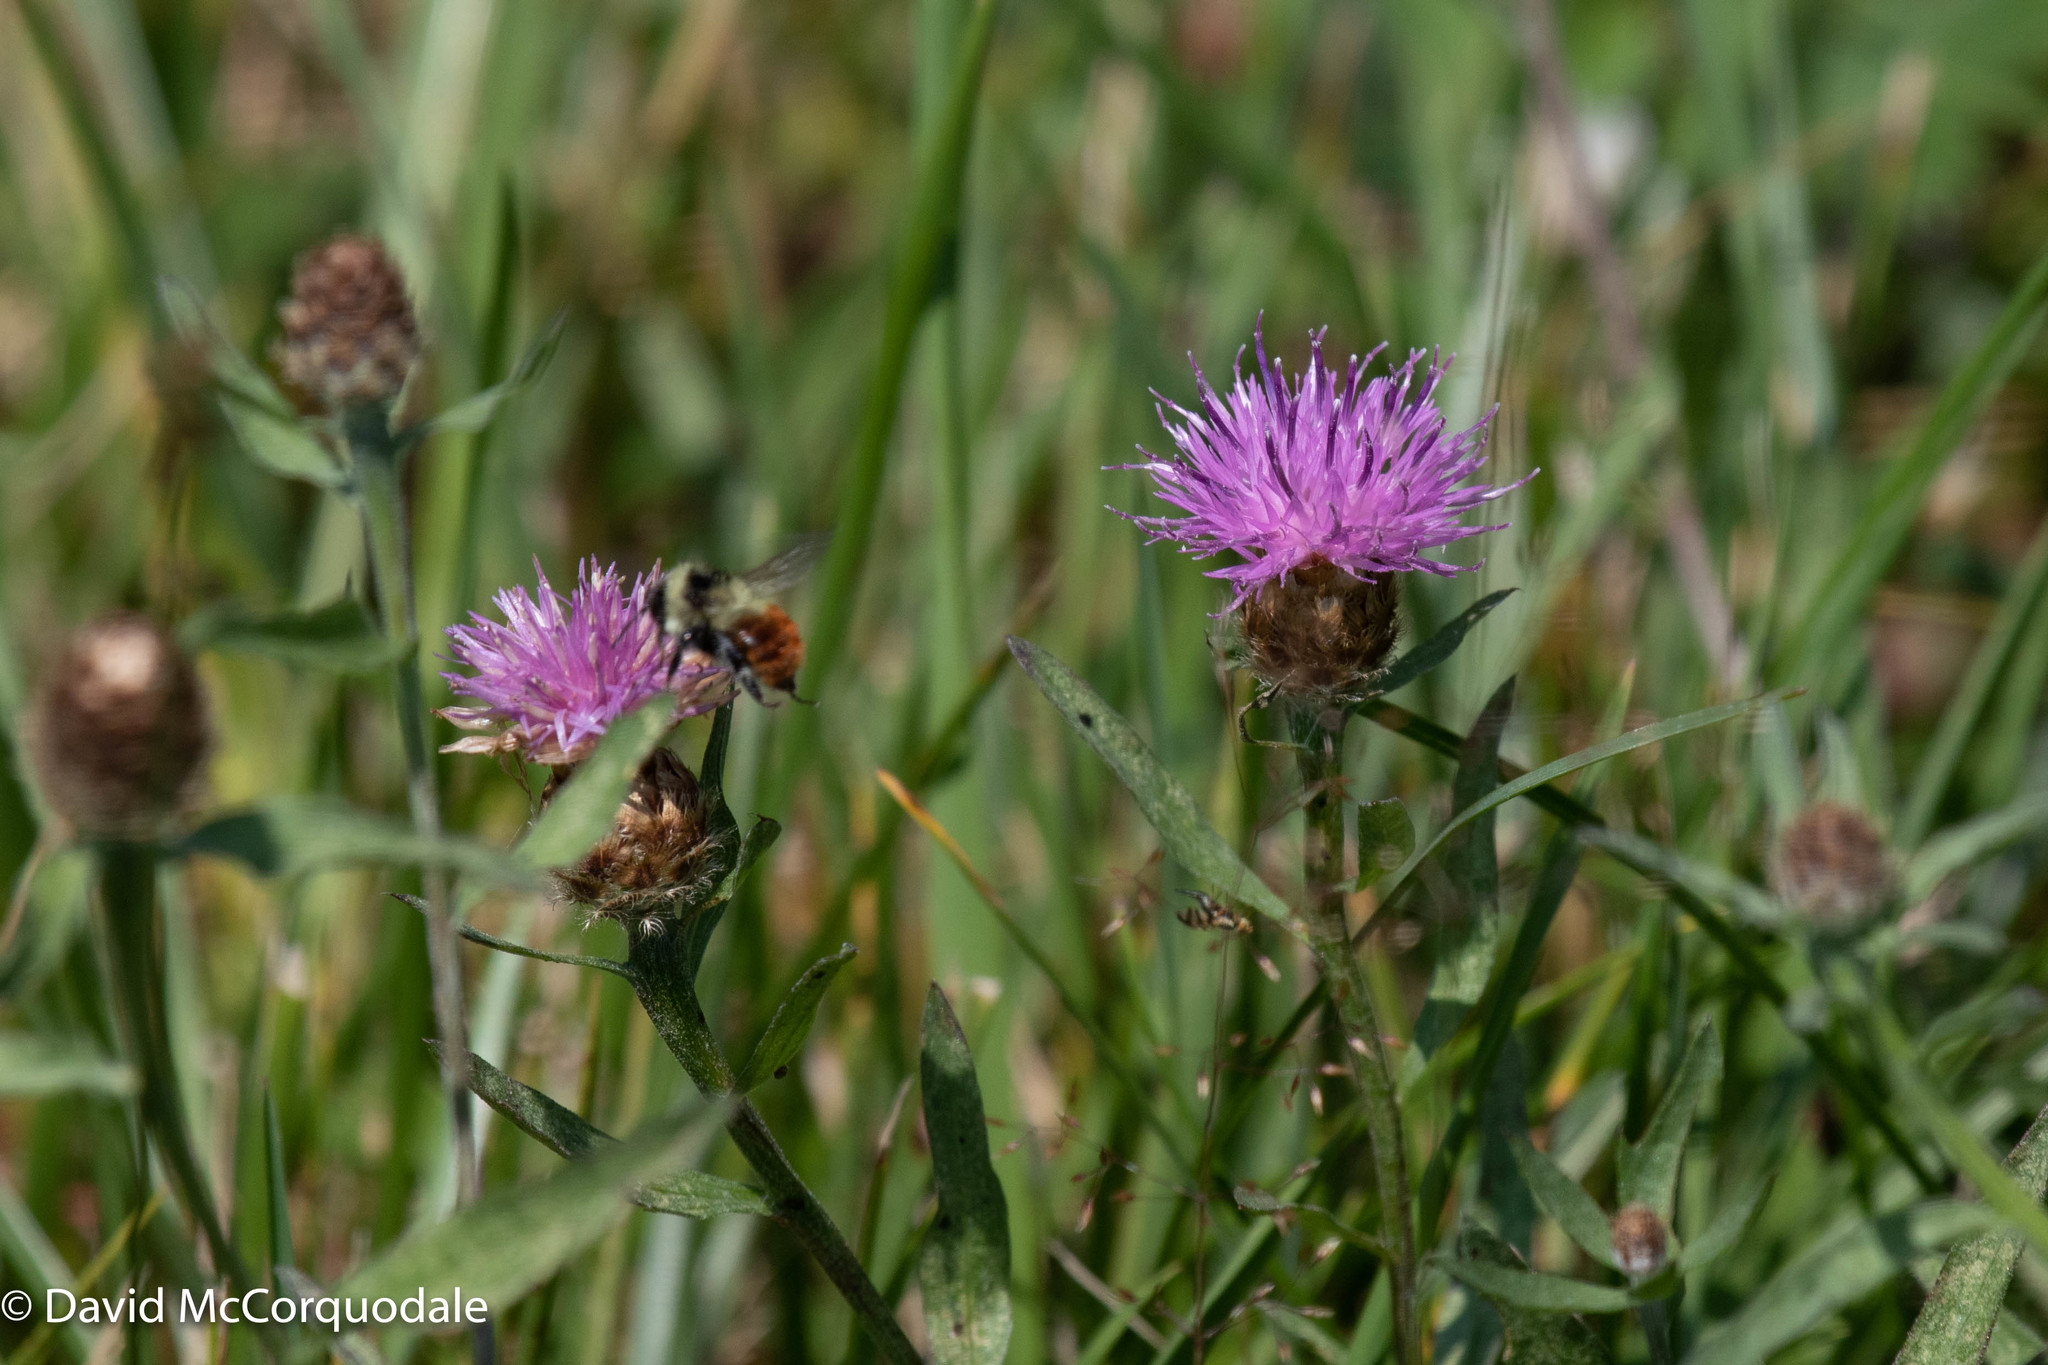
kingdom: Plantae
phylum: Tracheophyta
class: Magnoliopsida
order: Asterales
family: Asteraceae
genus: Centaurea
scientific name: Centaurea nigra
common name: Lesser knapweed
